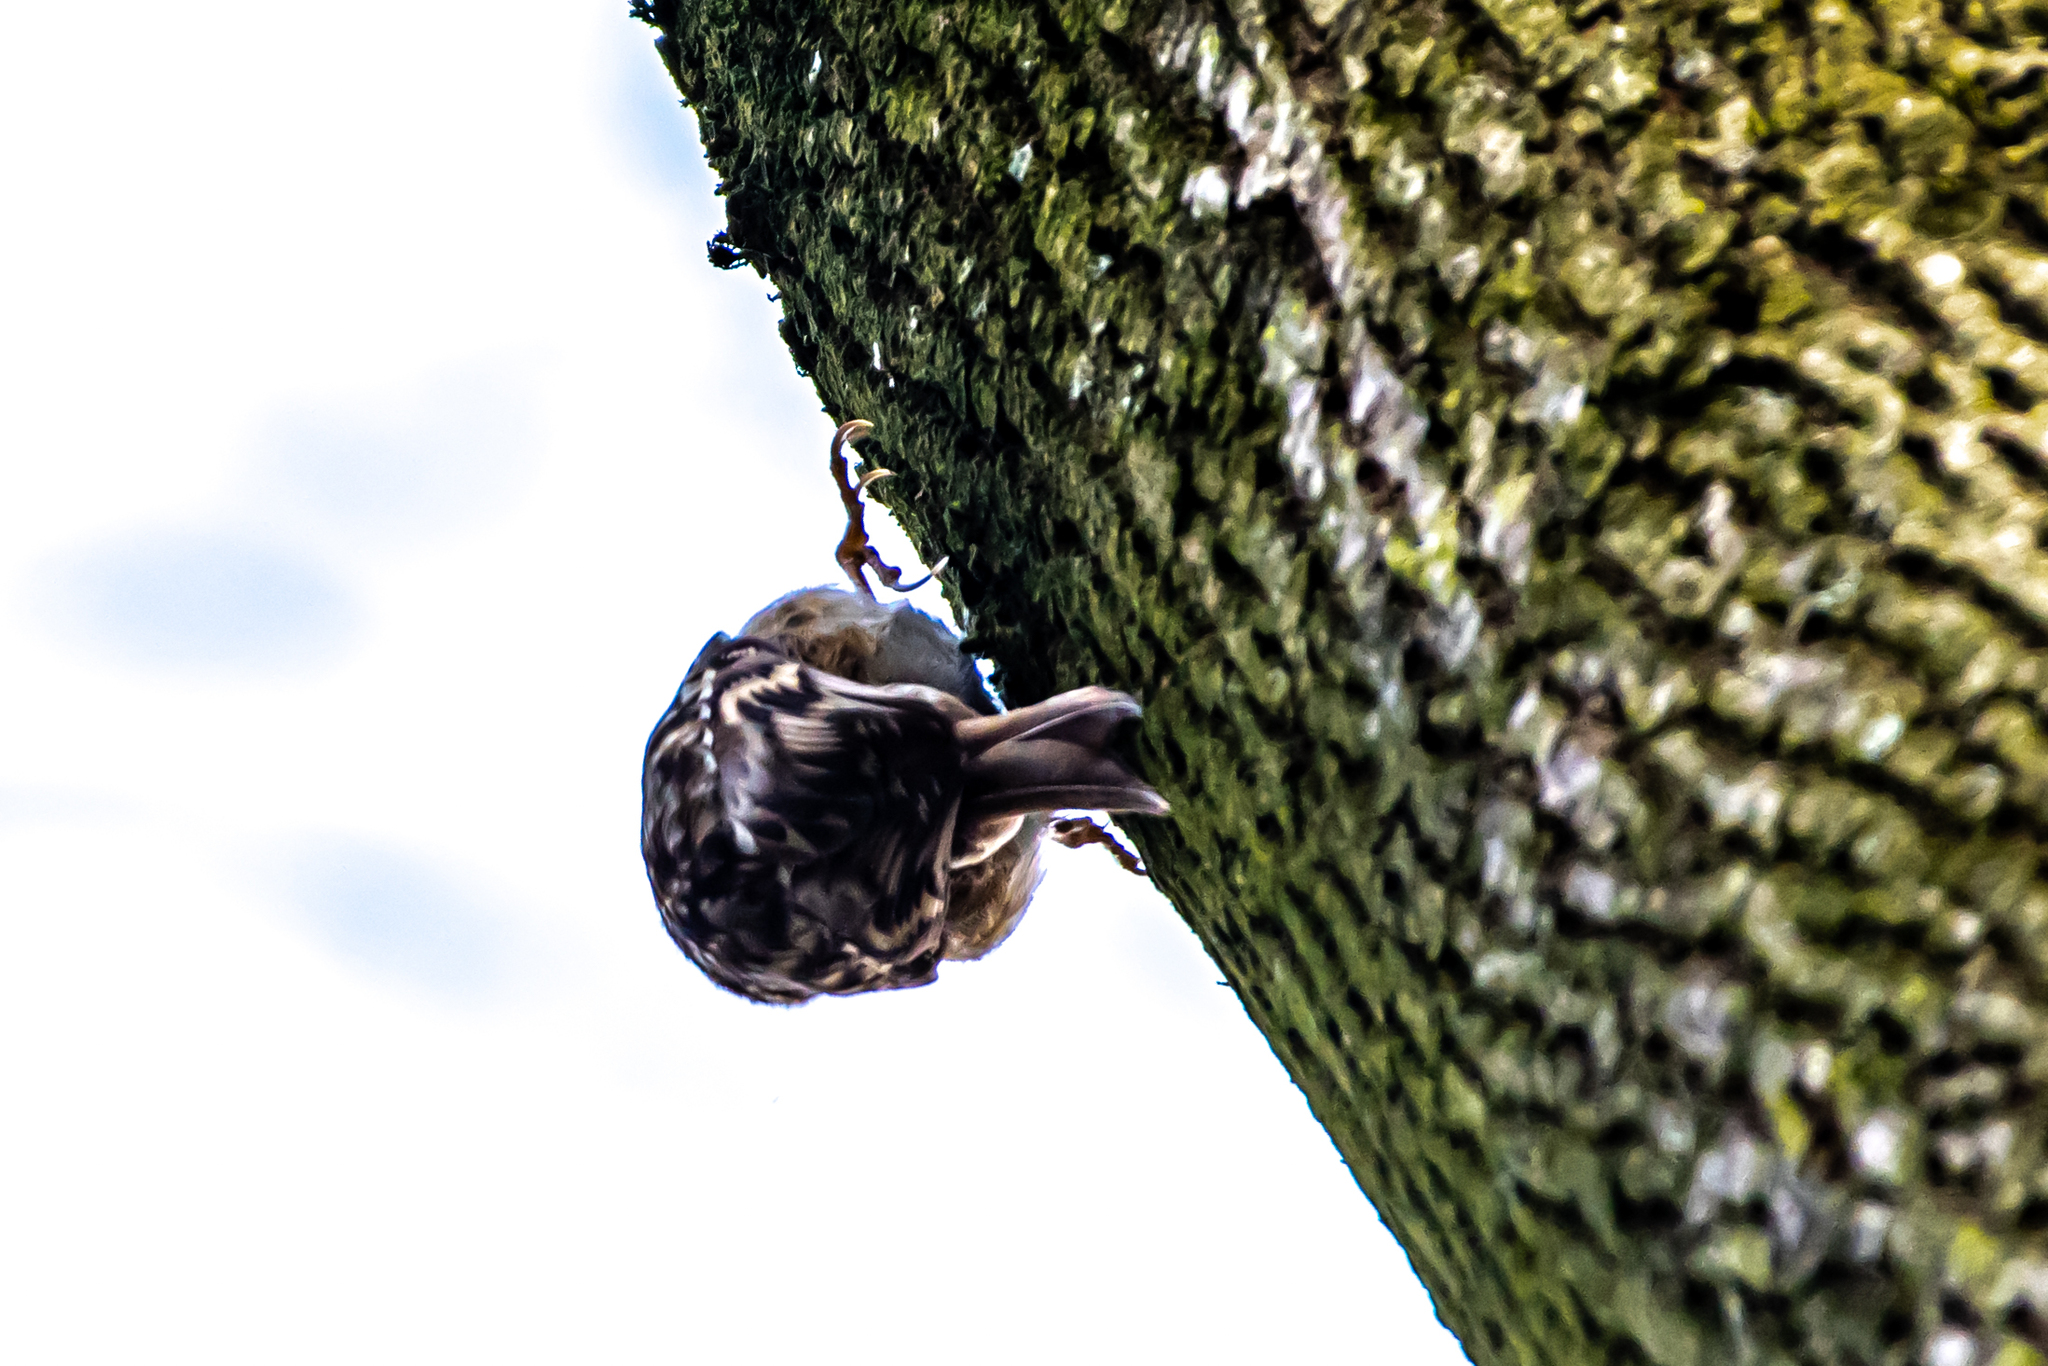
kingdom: Animalia
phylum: Chordata
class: Aves
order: Passeriformes
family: Certhiidae
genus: Certhia
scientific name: Certhia brachydactyla
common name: Short-toed treecreeper
